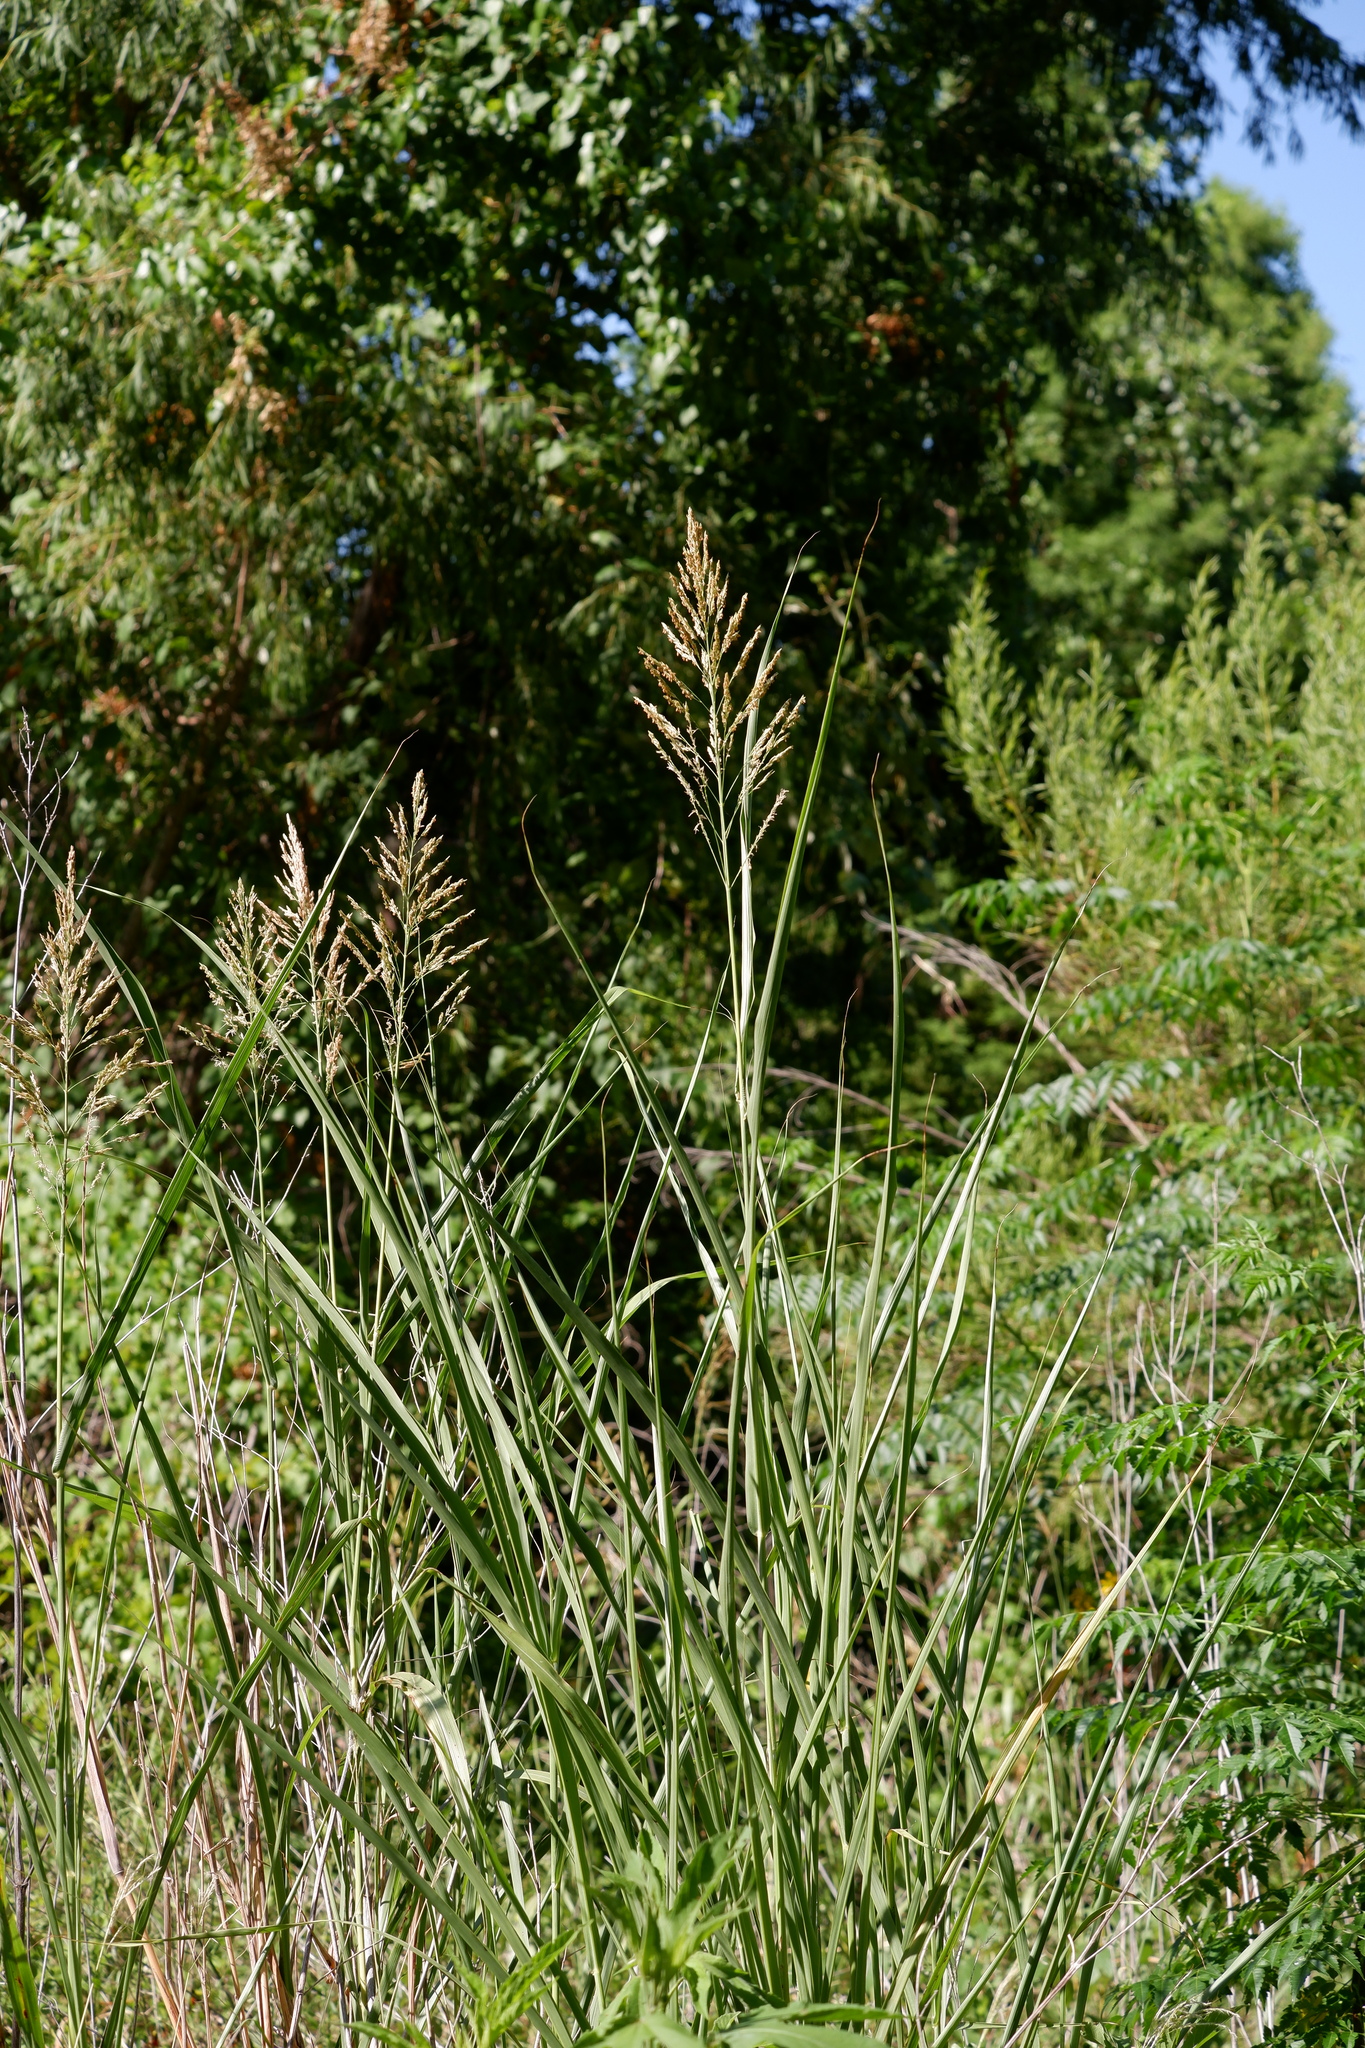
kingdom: Plantae
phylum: Tracheophyta
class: Liliopsida
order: Poales
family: Poaceae
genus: Sorghum
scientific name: Sorghum halepense
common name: Johnson-grass
